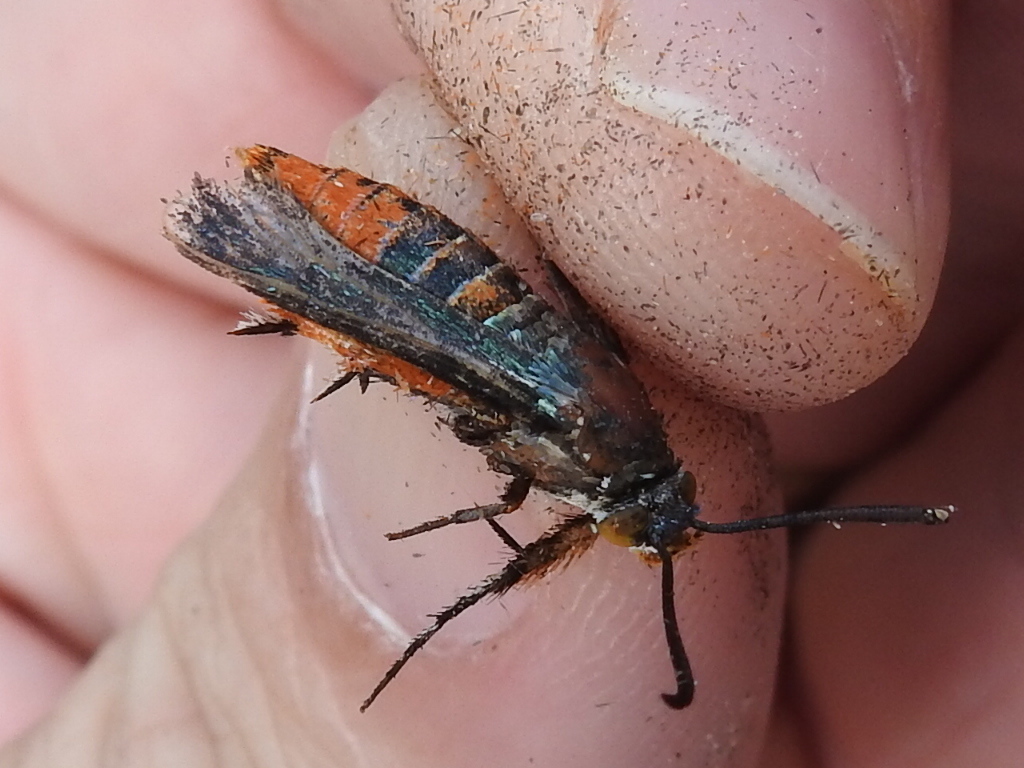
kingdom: Animalia
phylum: Arthropoda
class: Insecta
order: Lepidoptera
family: Sesiidae
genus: Eichlinia
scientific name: Eichlinia calabaza
